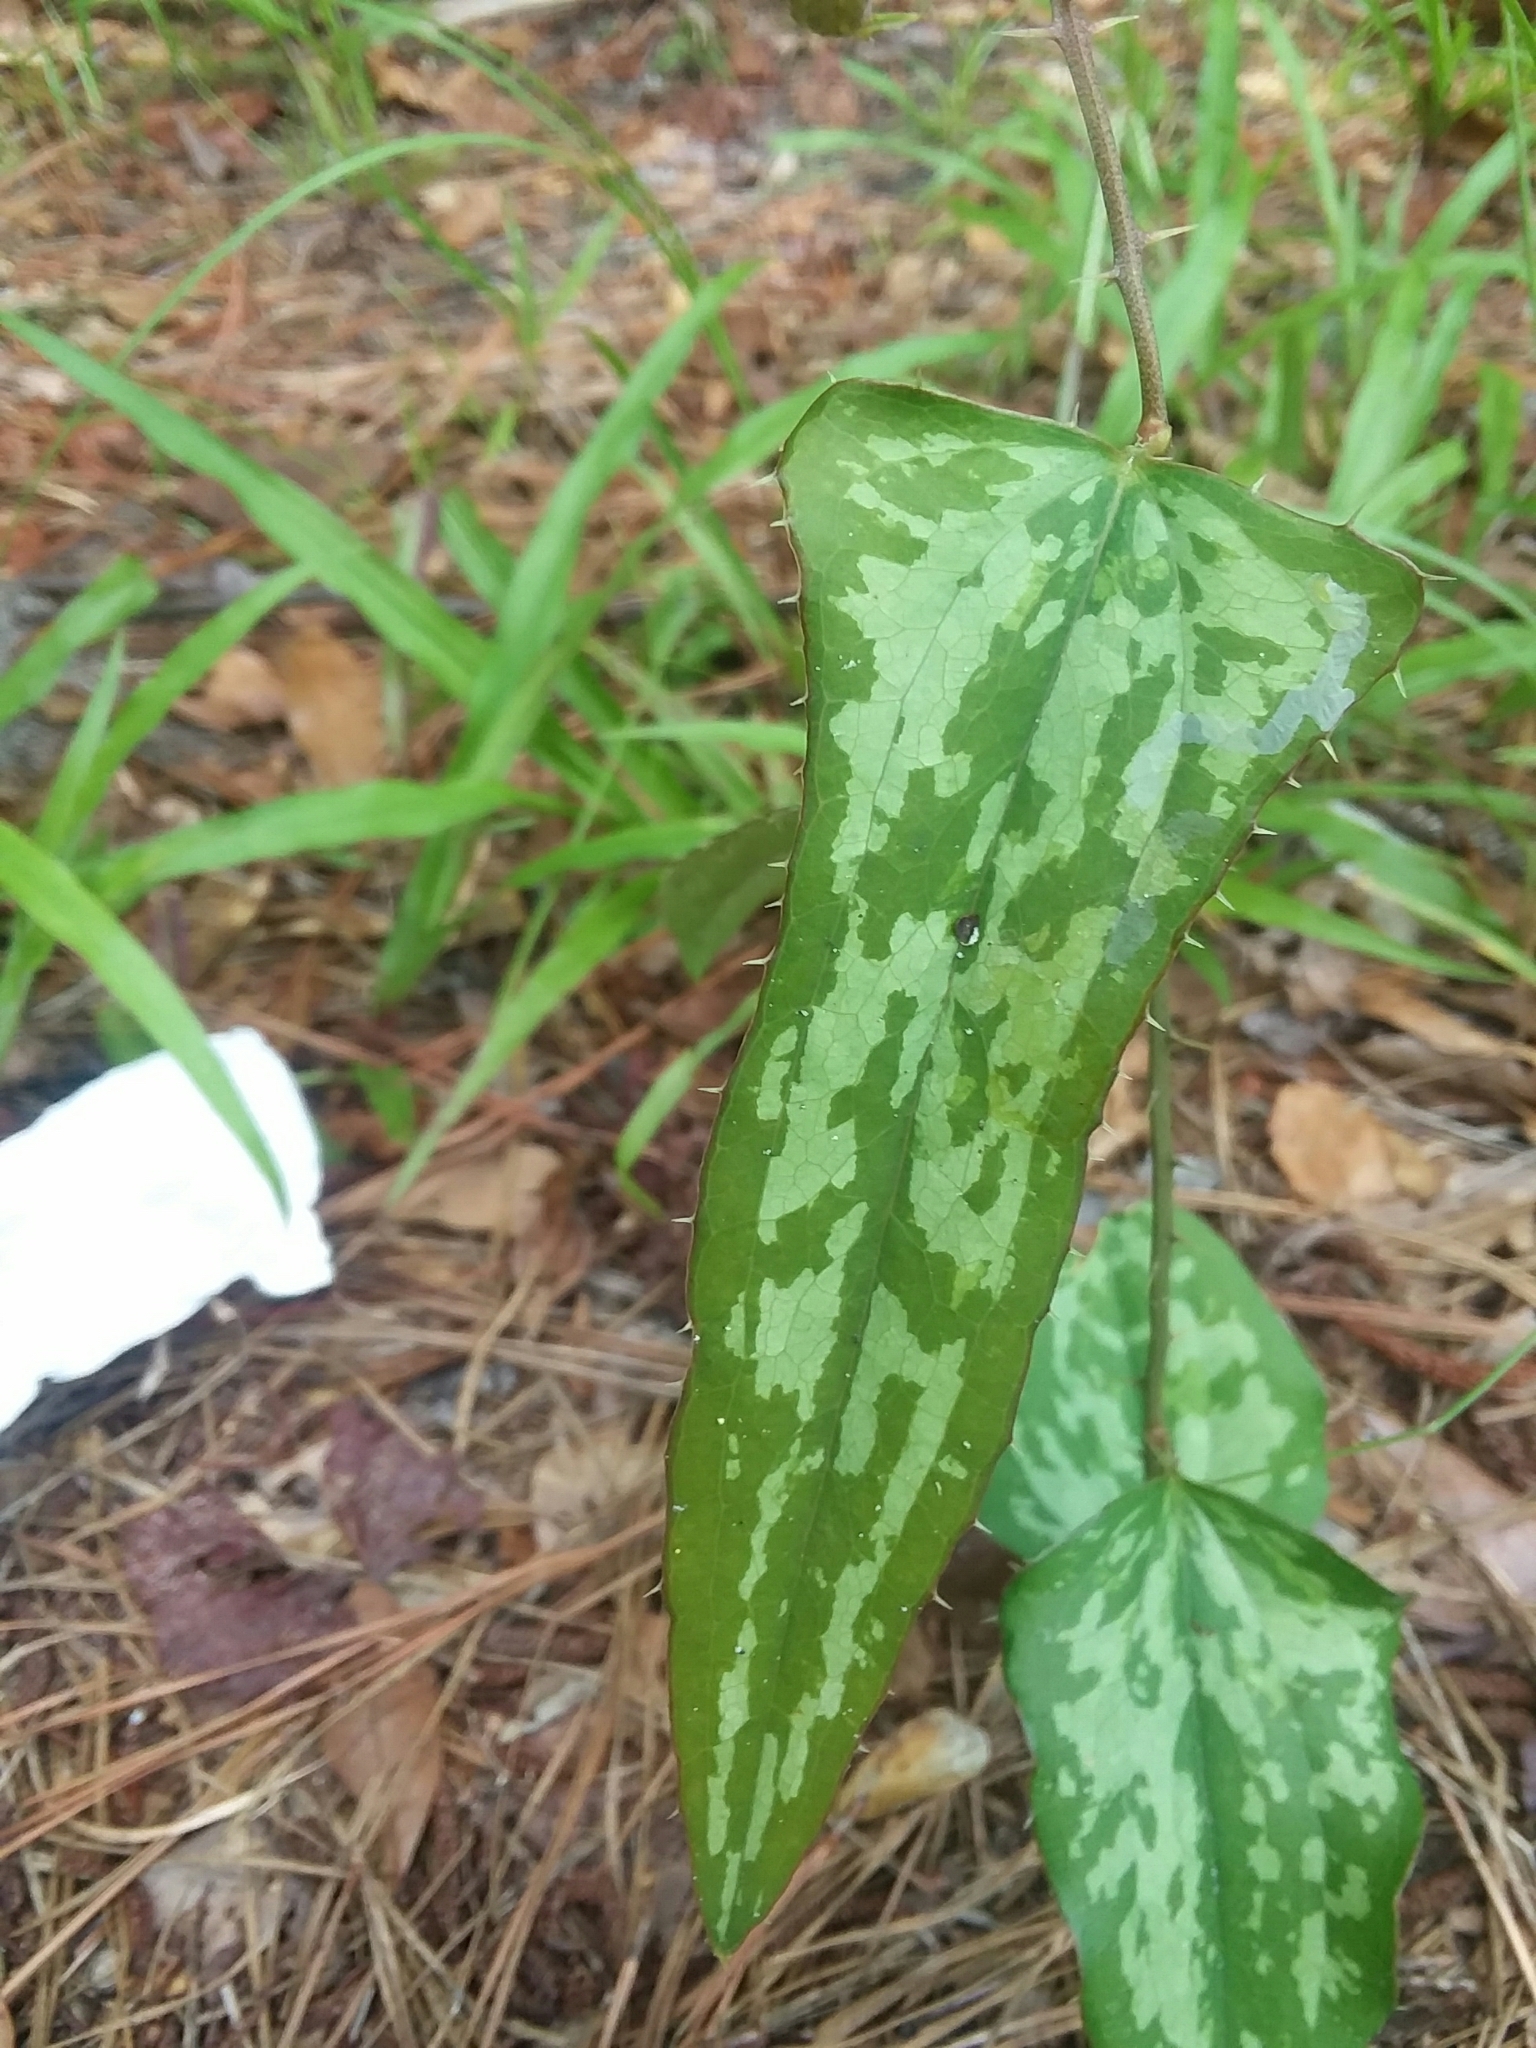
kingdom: Plantae
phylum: Tracheophyta
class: Liliopsida
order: Liliales
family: Smilacaceae
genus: Smilax
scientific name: Smilax bona-nox
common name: Catbrier
